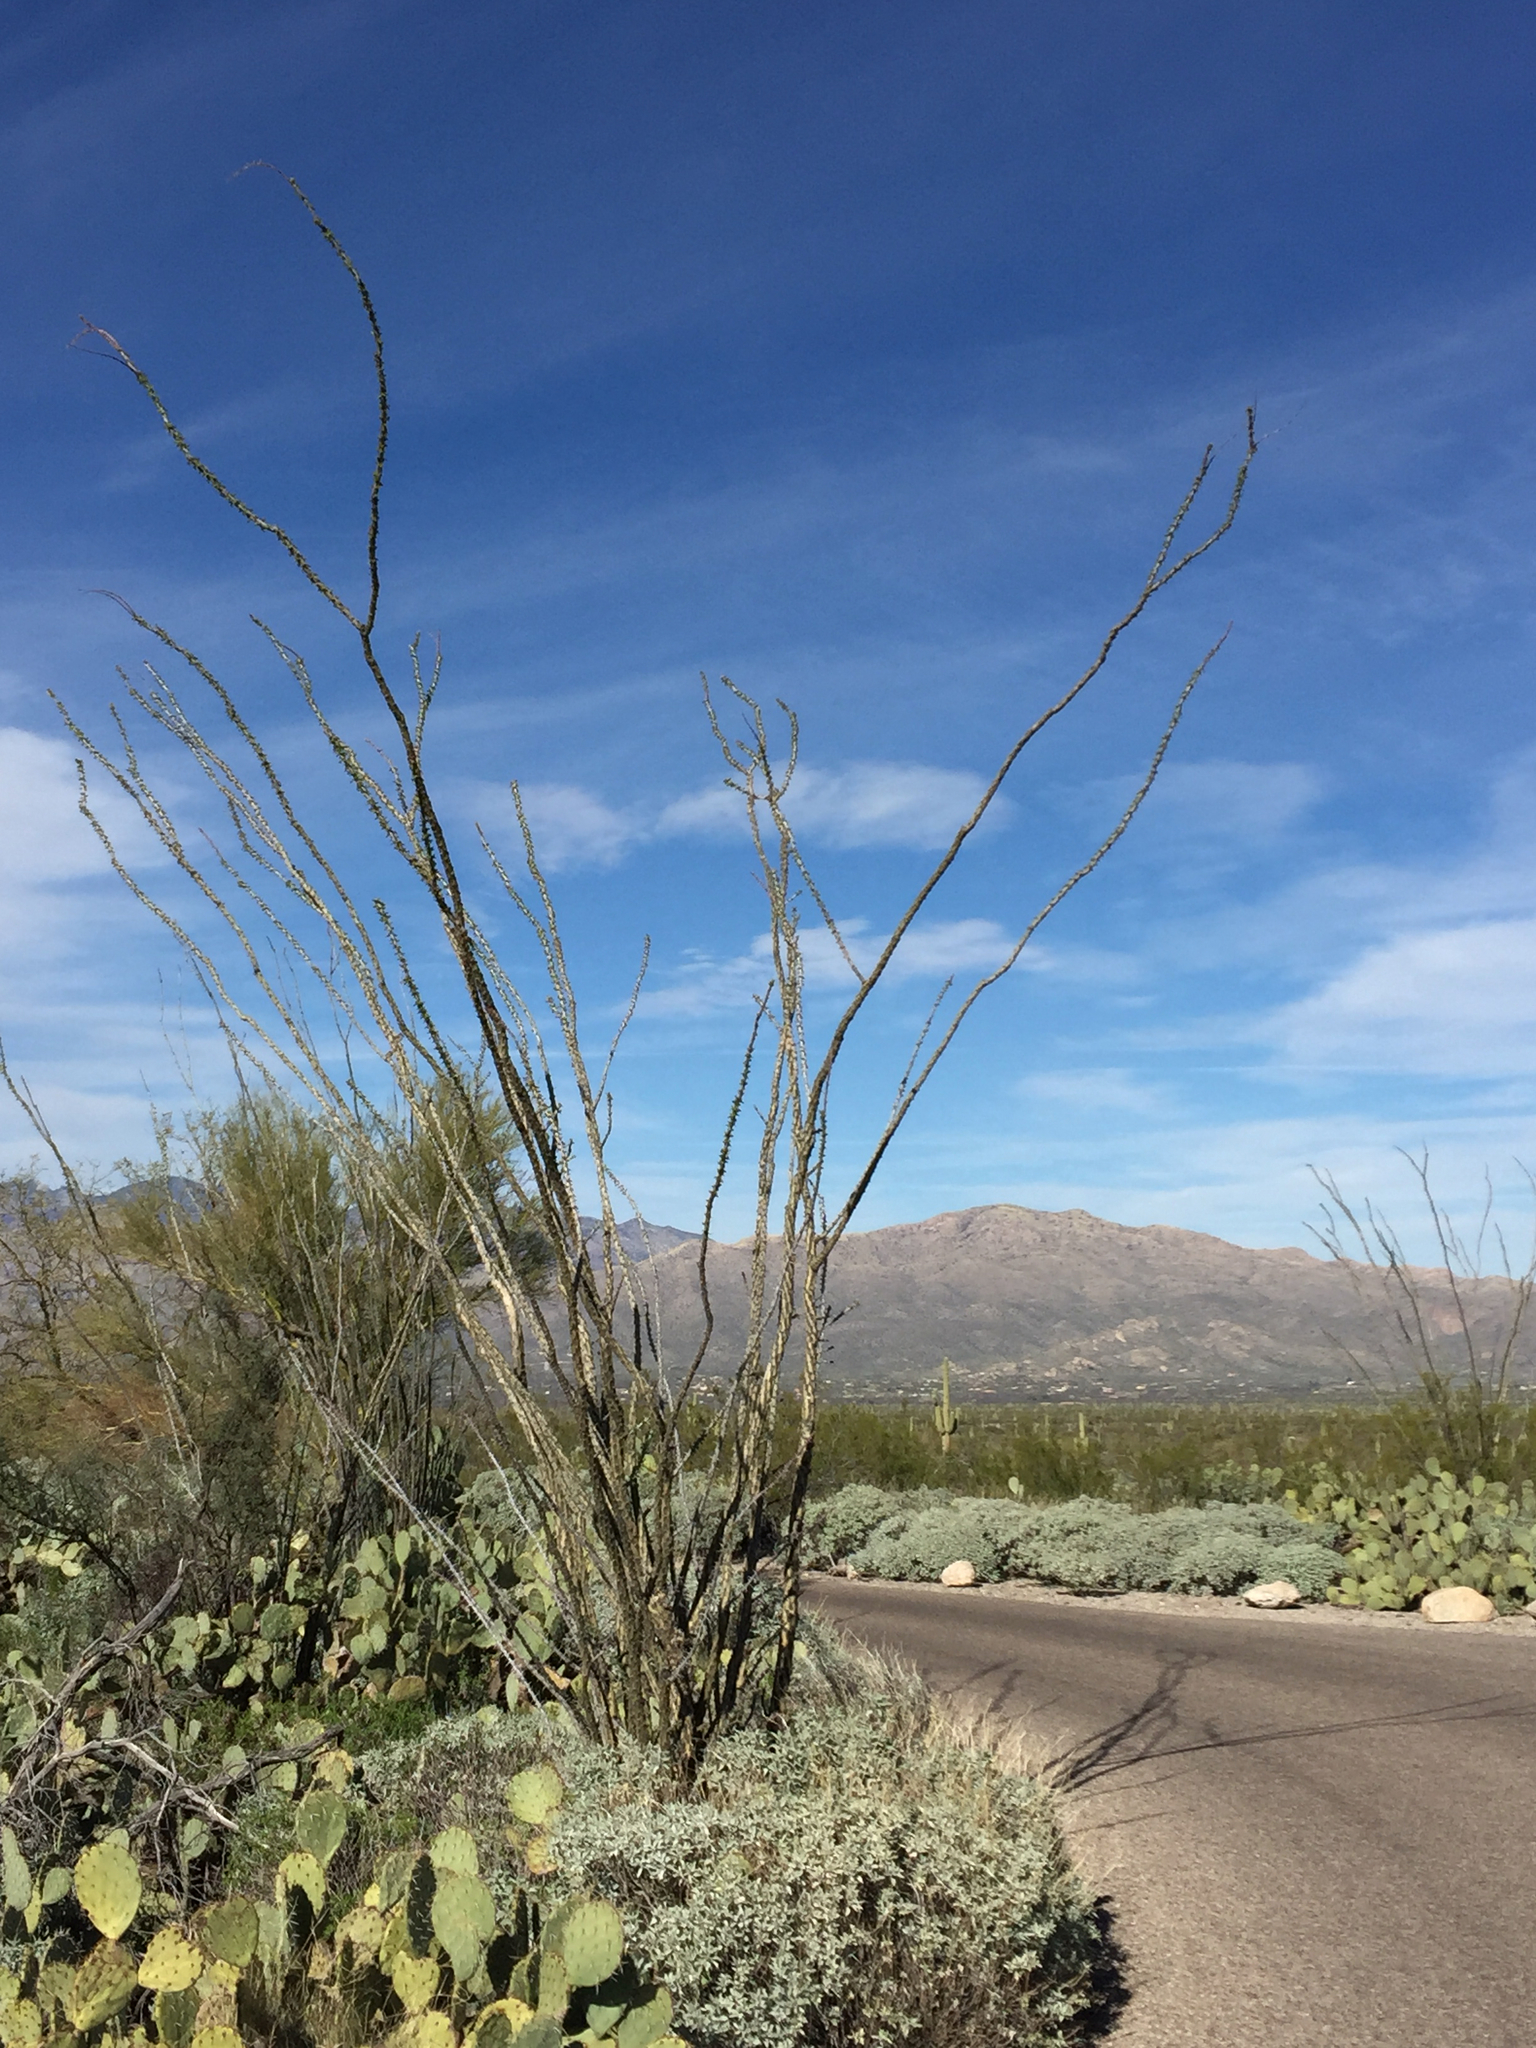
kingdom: Plantae
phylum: Tracheophyta
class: Magnoliopsida
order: Ericales
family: Fouquieriaceae
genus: Fouquieria
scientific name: Fouquieria splendens
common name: Vine-cactus
